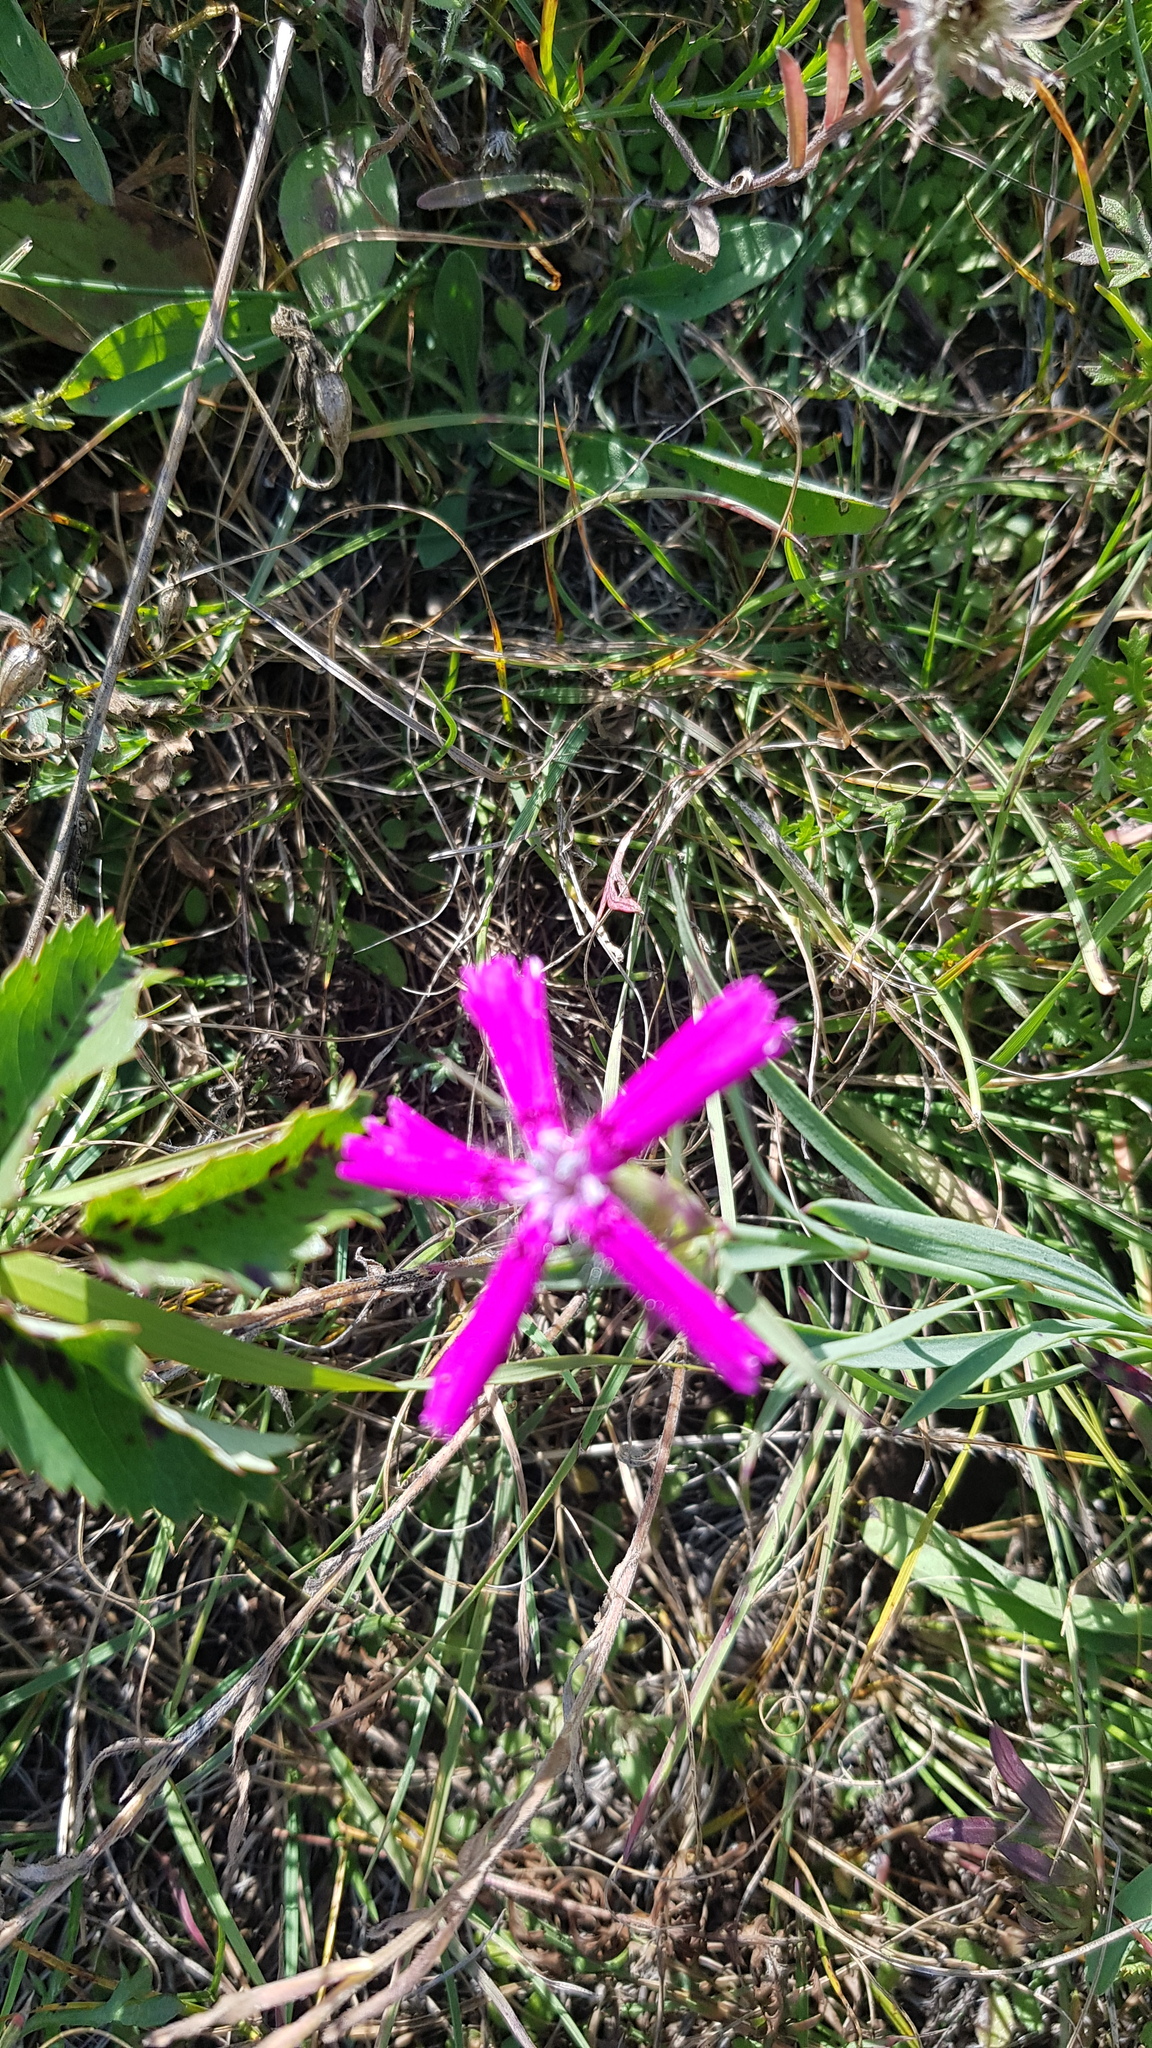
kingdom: Plantae
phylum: Tracheophyta
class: Magnoliopsida
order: Caryophyllales
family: Caryophyllaceae
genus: Dianthus
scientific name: Dianthus chinensis
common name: Rainbow pink
